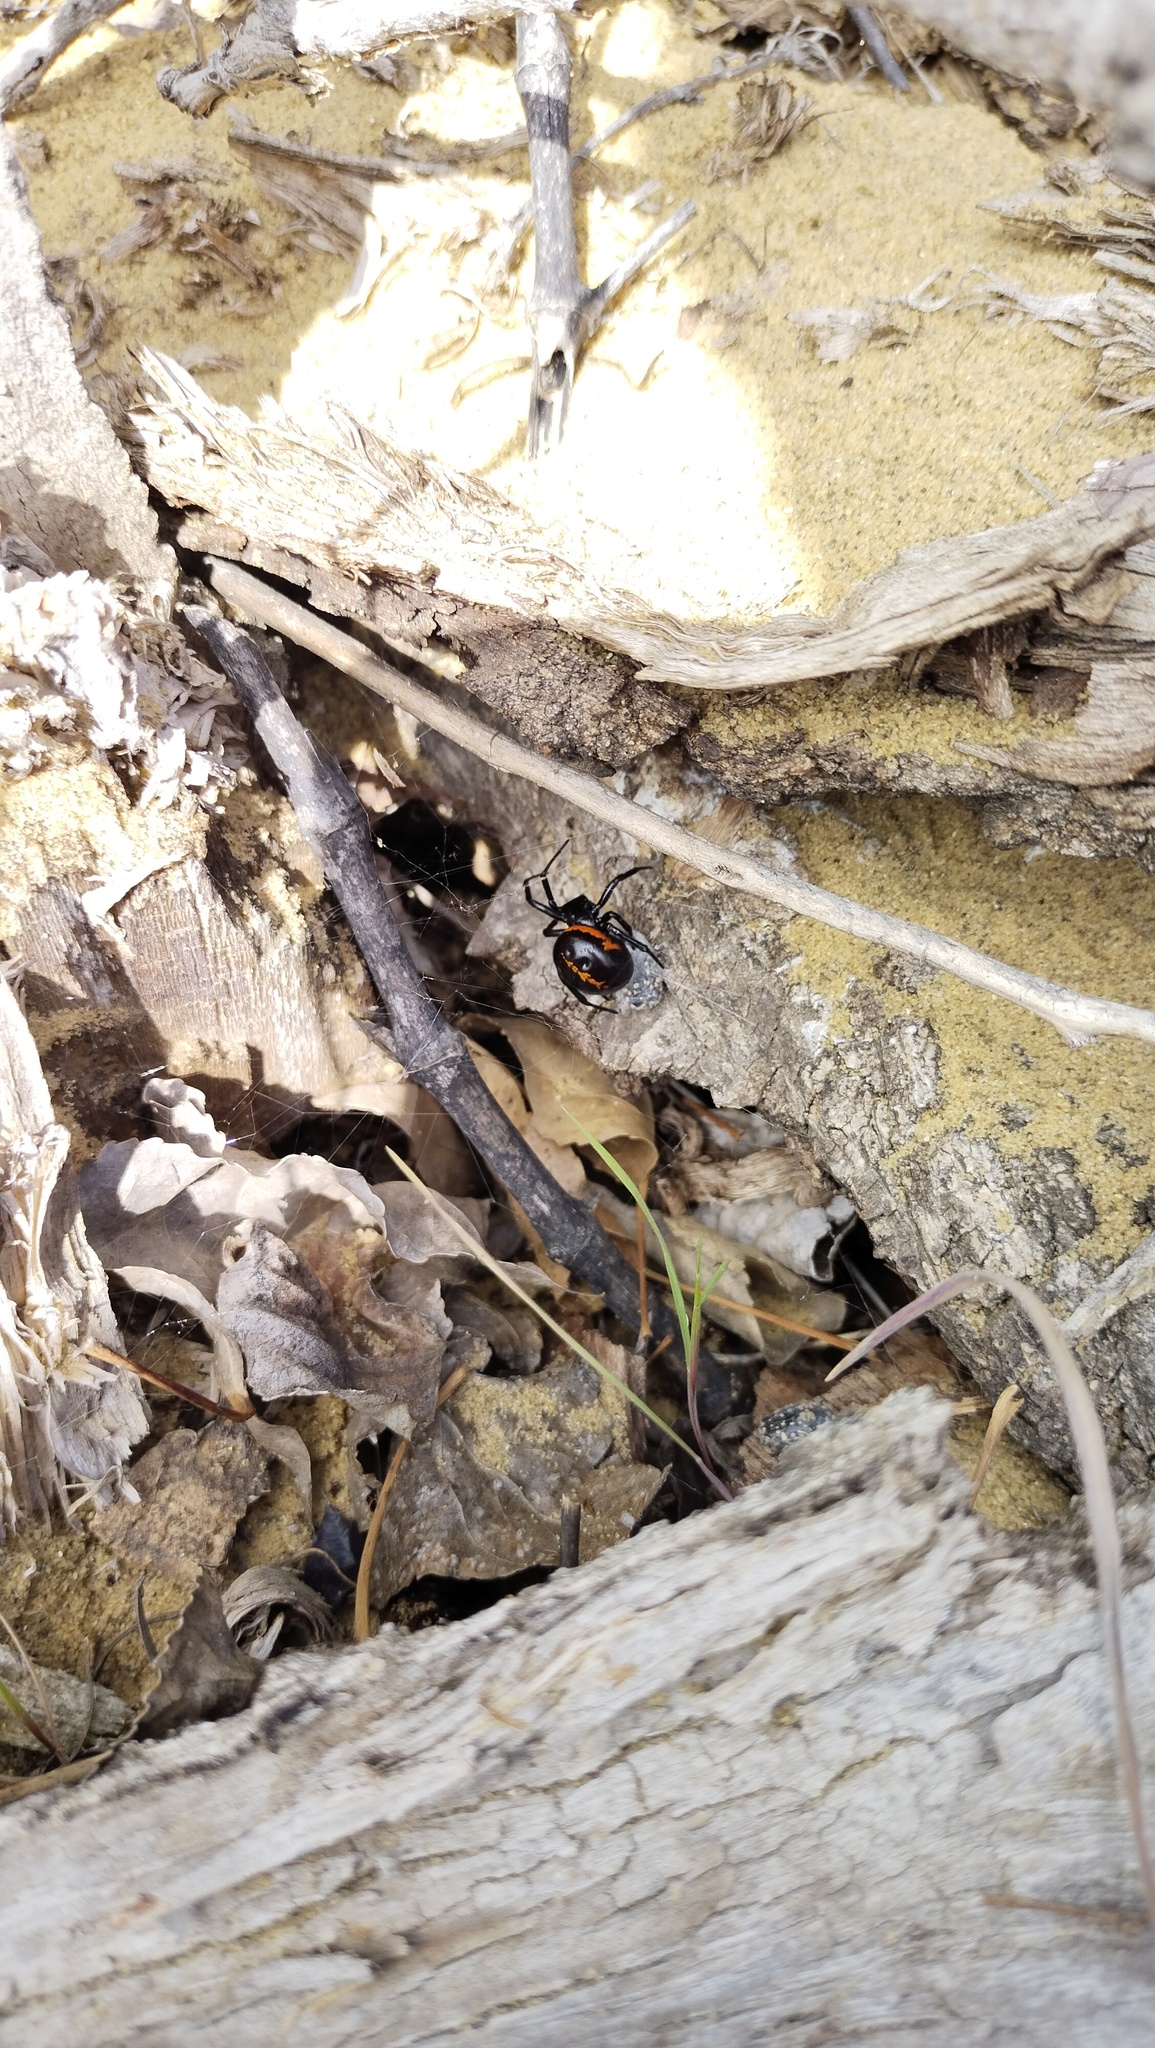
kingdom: Animalia
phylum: Arthropoda
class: Arachnida
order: Araneae
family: Theridiidae
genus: Steatoda
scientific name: Steatoda paykulliana
